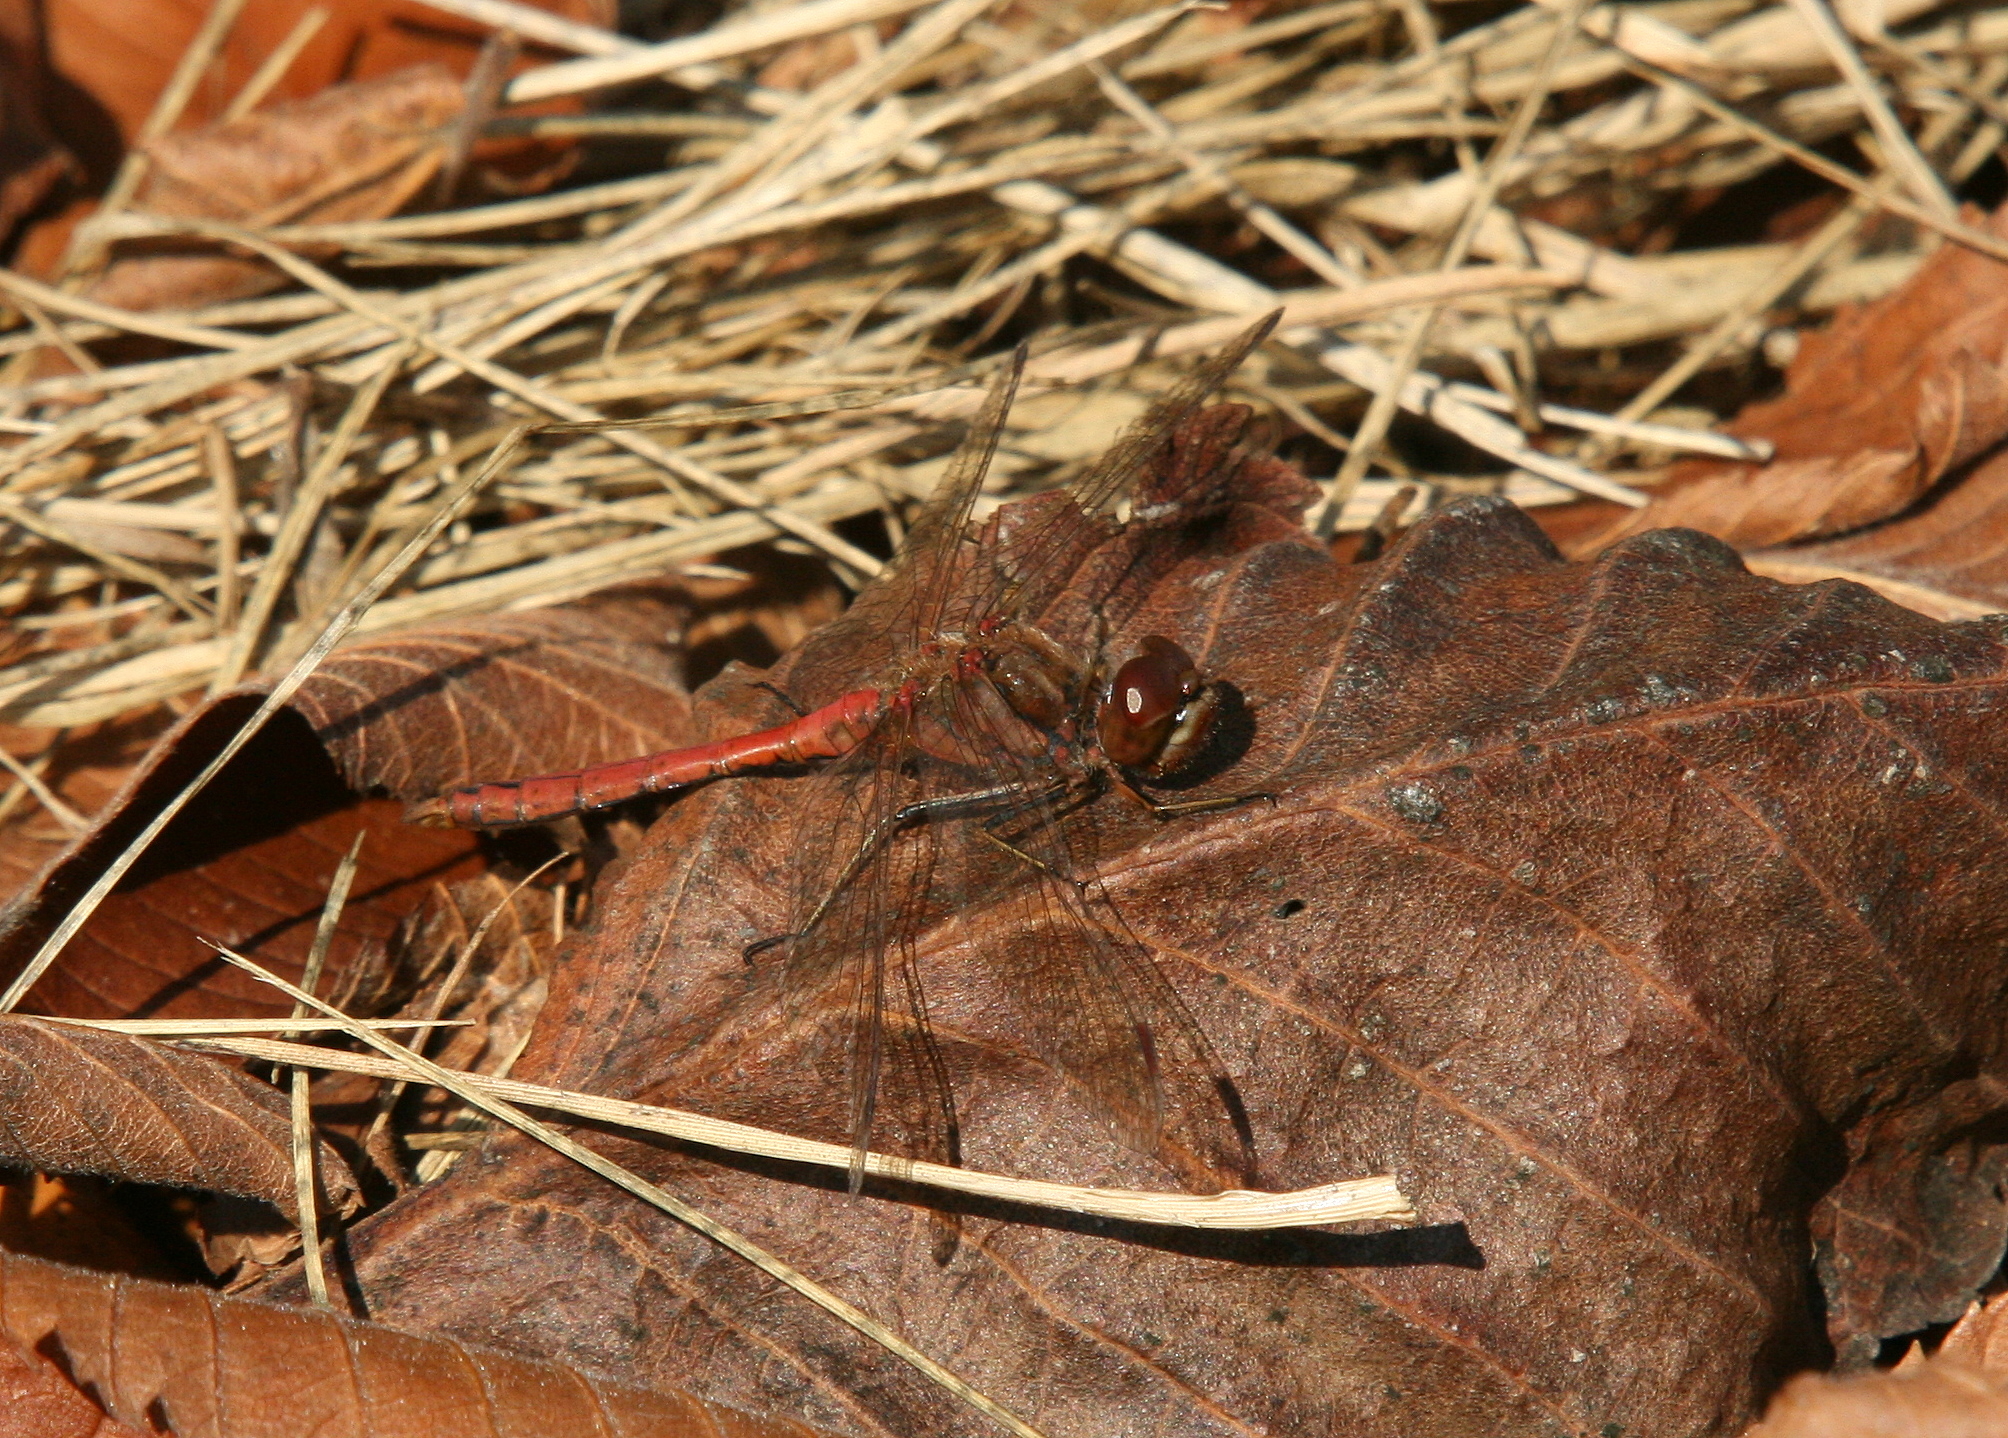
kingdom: Animalia
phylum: Arthropoda
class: Insecta
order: Odonata
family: Libellulidae
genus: Sympetrum
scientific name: Sympetrum vulgatum
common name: Vagrant darter
